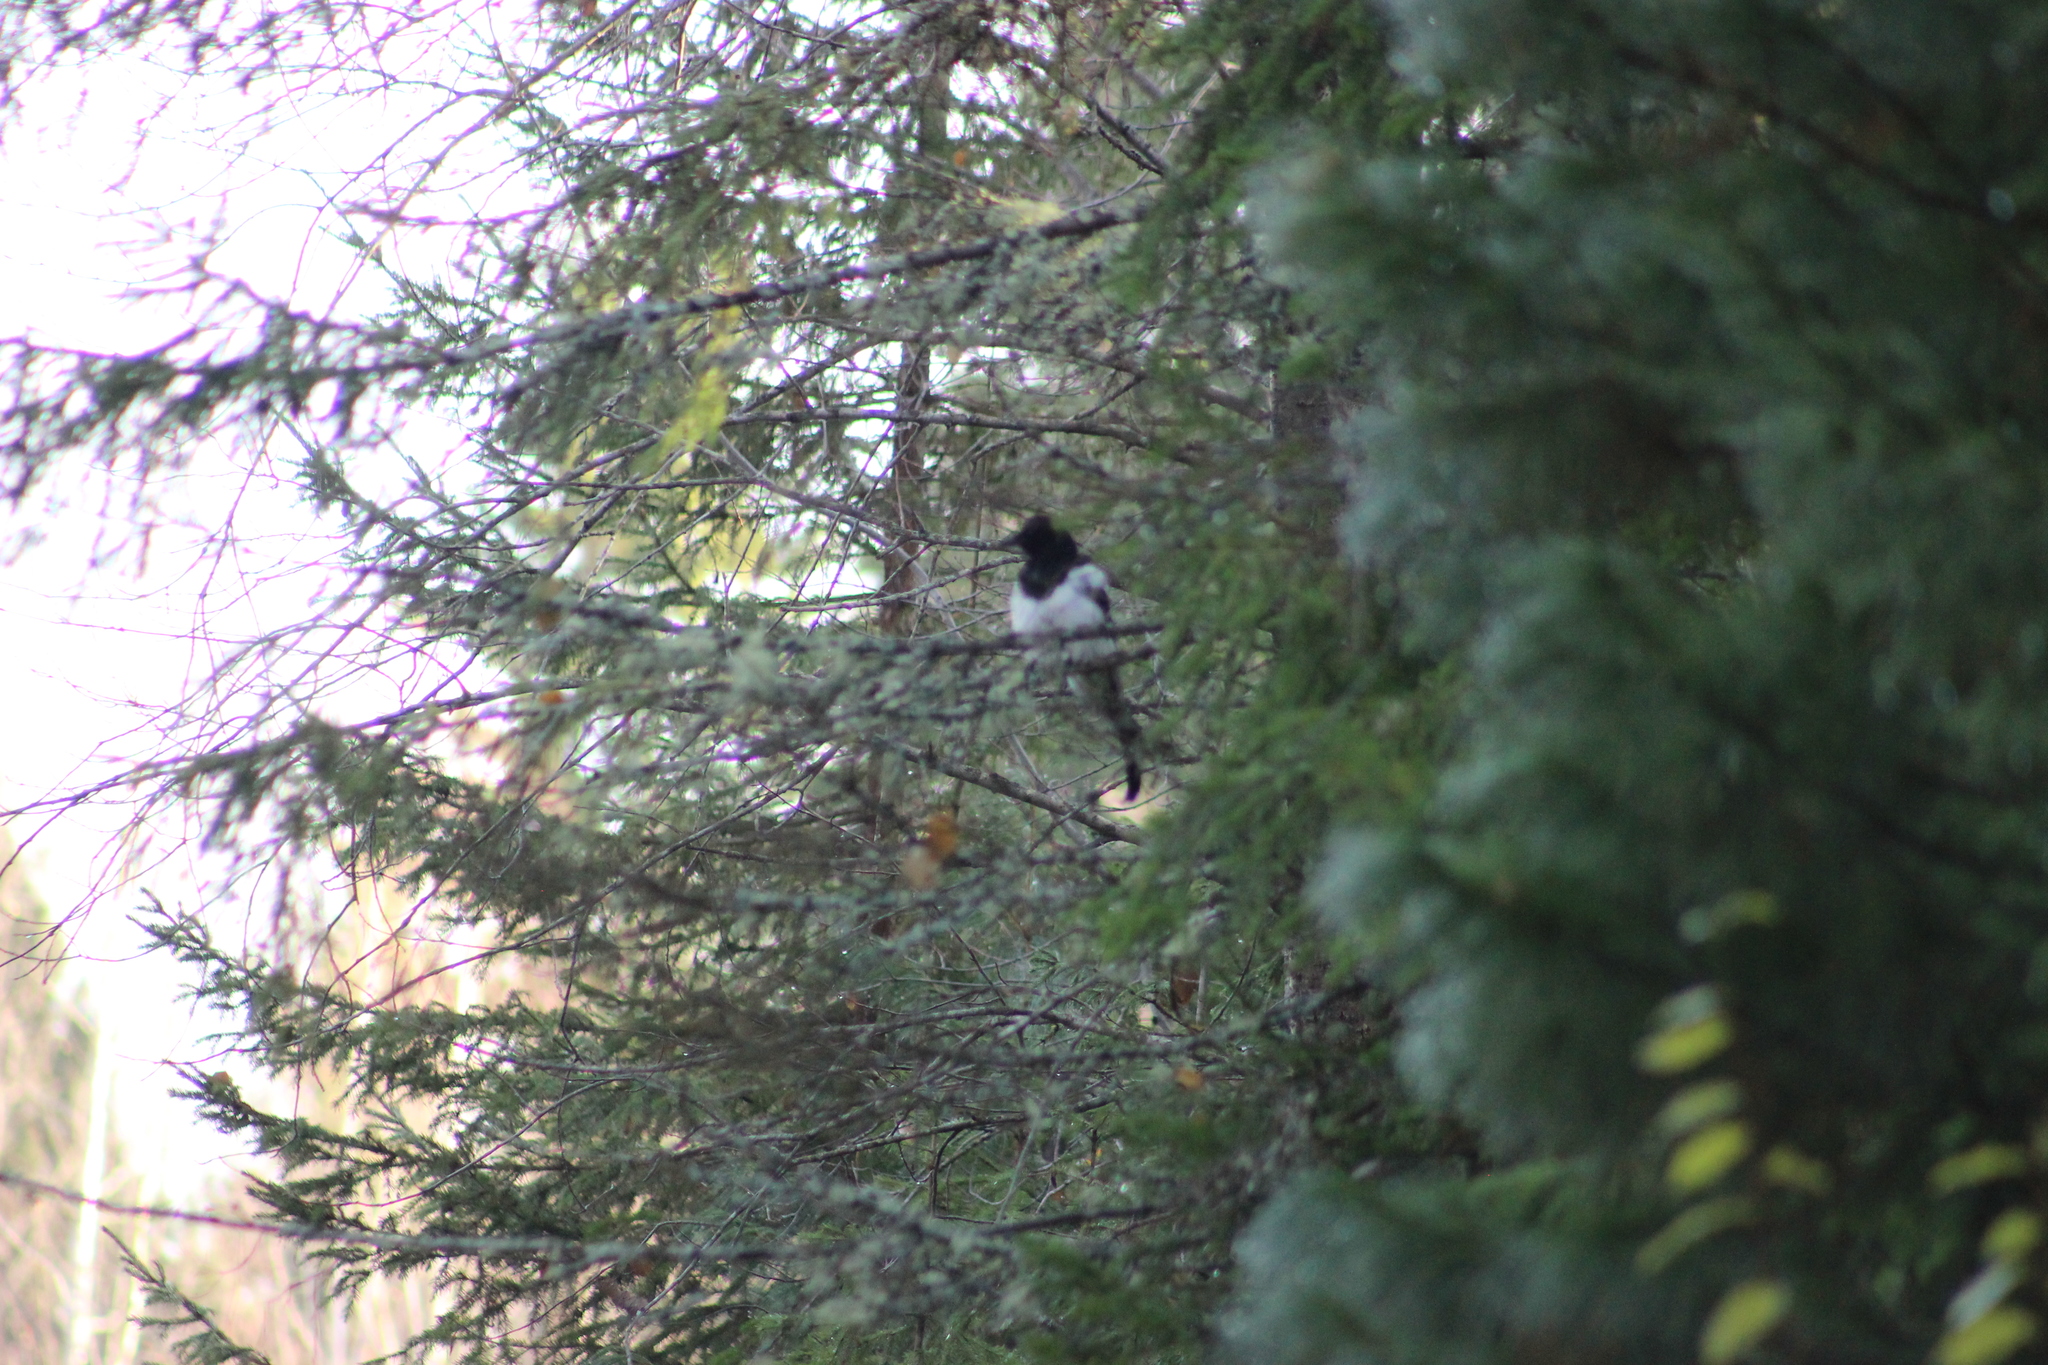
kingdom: Animalia
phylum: Chordata
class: Aves
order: Passeriformes
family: Corvidae
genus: Pica
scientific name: Pica pica
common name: Eurasian magpie
